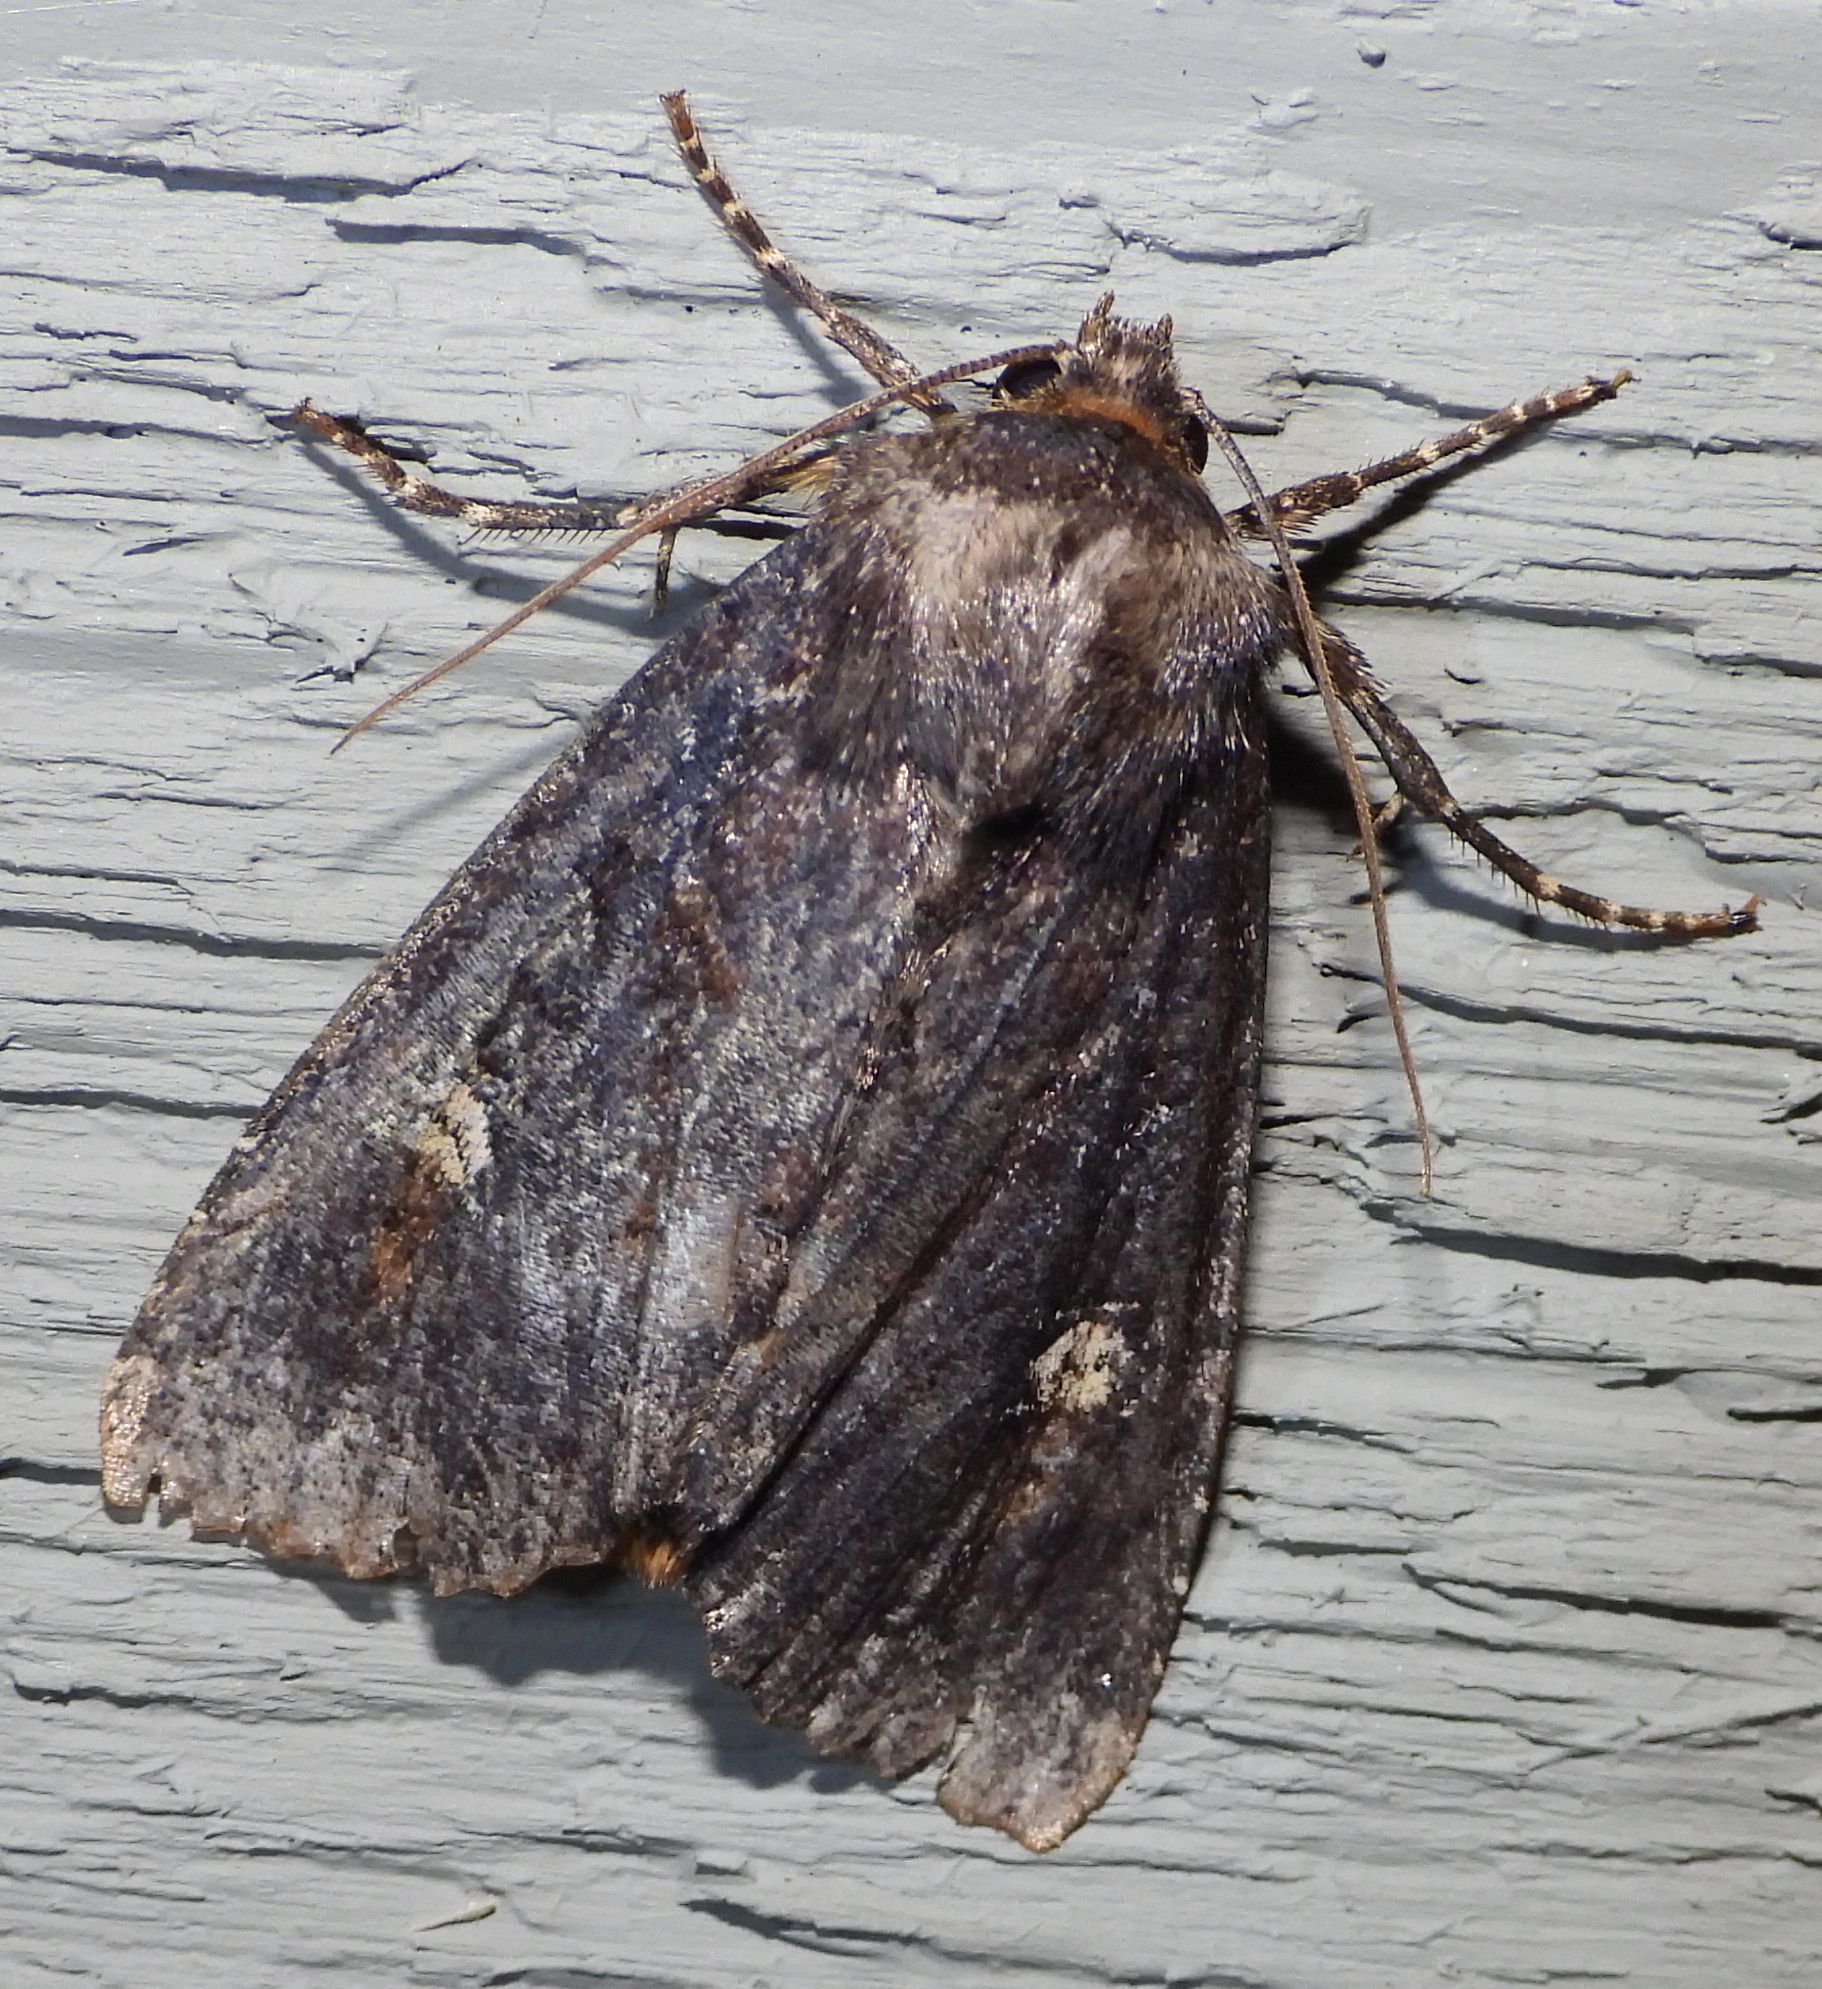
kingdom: Animalia
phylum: Arthropoda
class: Insecta
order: Lepidoptera
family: Noctuidae
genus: Apamea
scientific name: Apamea dubitans
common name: Doubtful apamea moth
